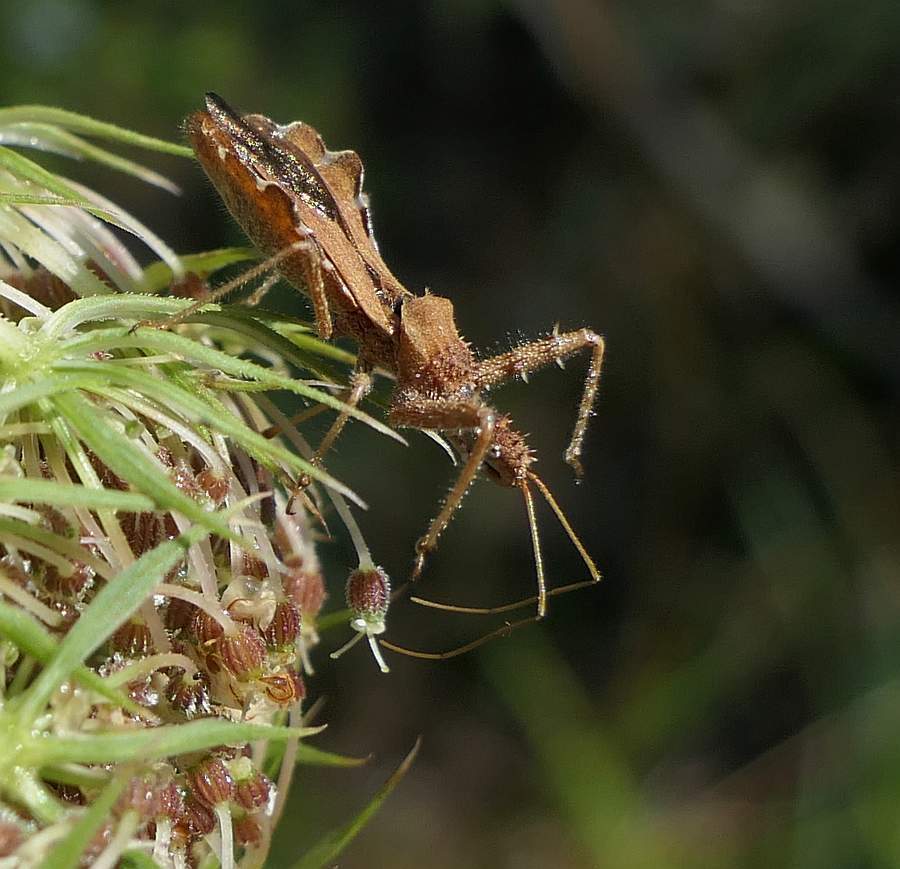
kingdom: Animalia
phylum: Arthropoda
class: Insecta
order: Hemiptera
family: Reduviidae
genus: Sinea
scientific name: Sinea diadema
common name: Spined assassin bug
